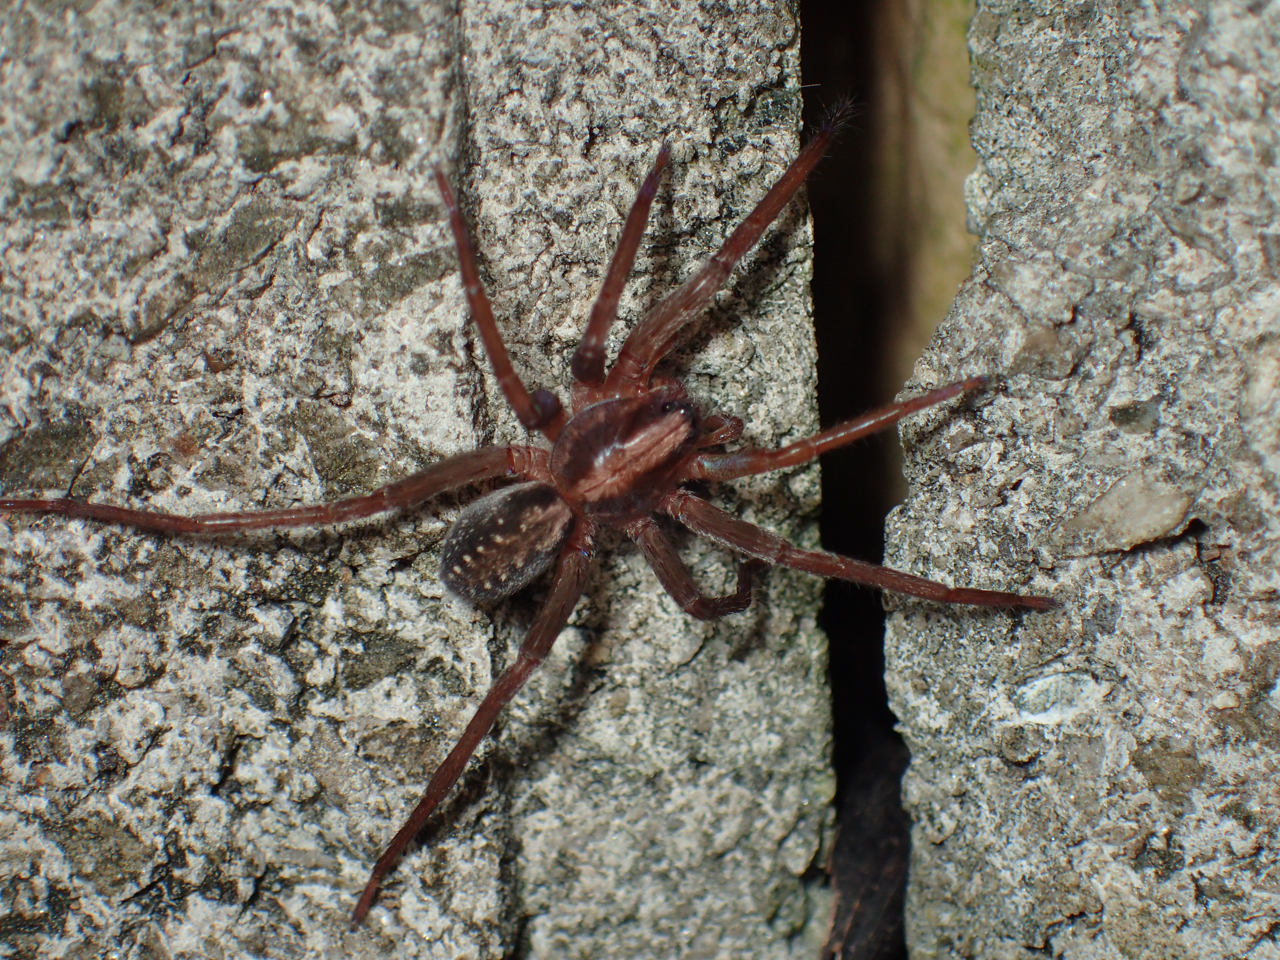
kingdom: Animalia
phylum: Arthropoda
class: Arachnida
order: Araneae
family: Ctenidae
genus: Ctenus
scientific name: Ctenus hibernalis
